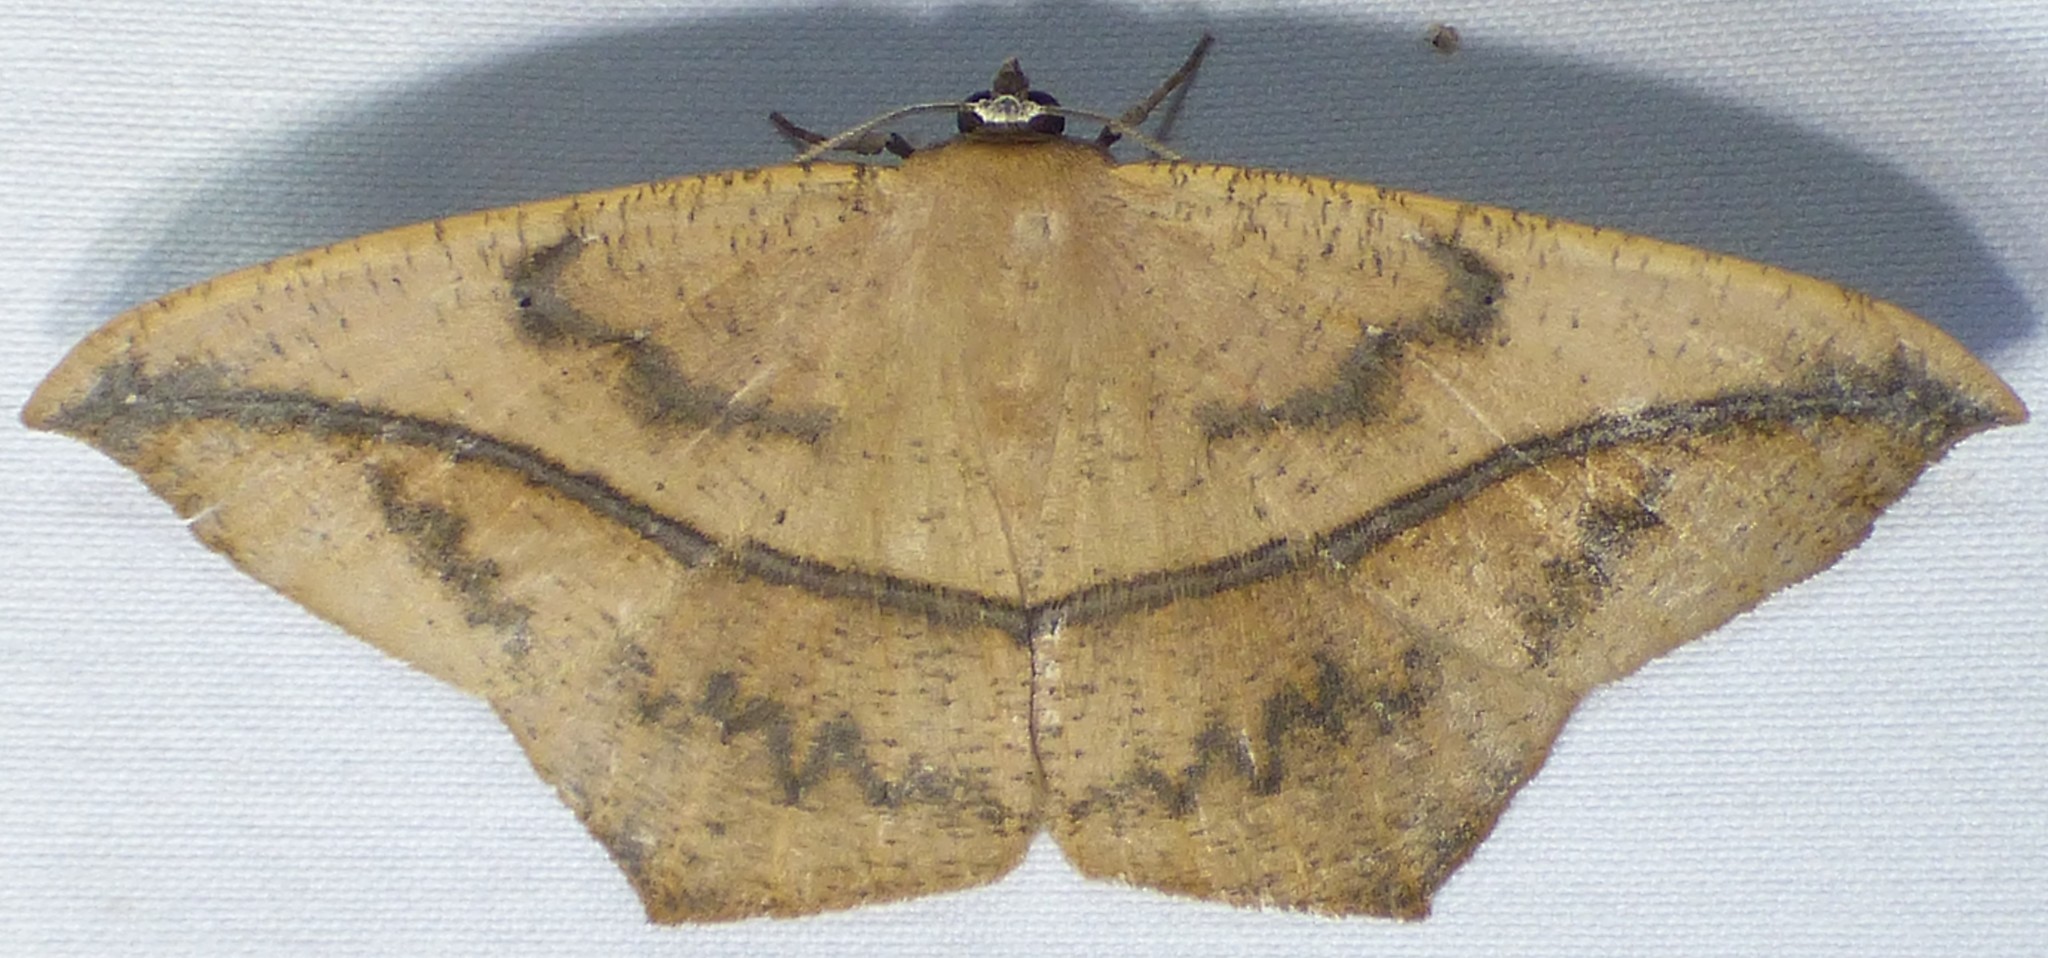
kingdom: Animalia
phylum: Arthropoda
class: Insecta
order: Lepidoptera
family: Geometridae
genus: Prochoerodes
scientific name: Prochoerodes lineola
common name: Large maple spanworm
